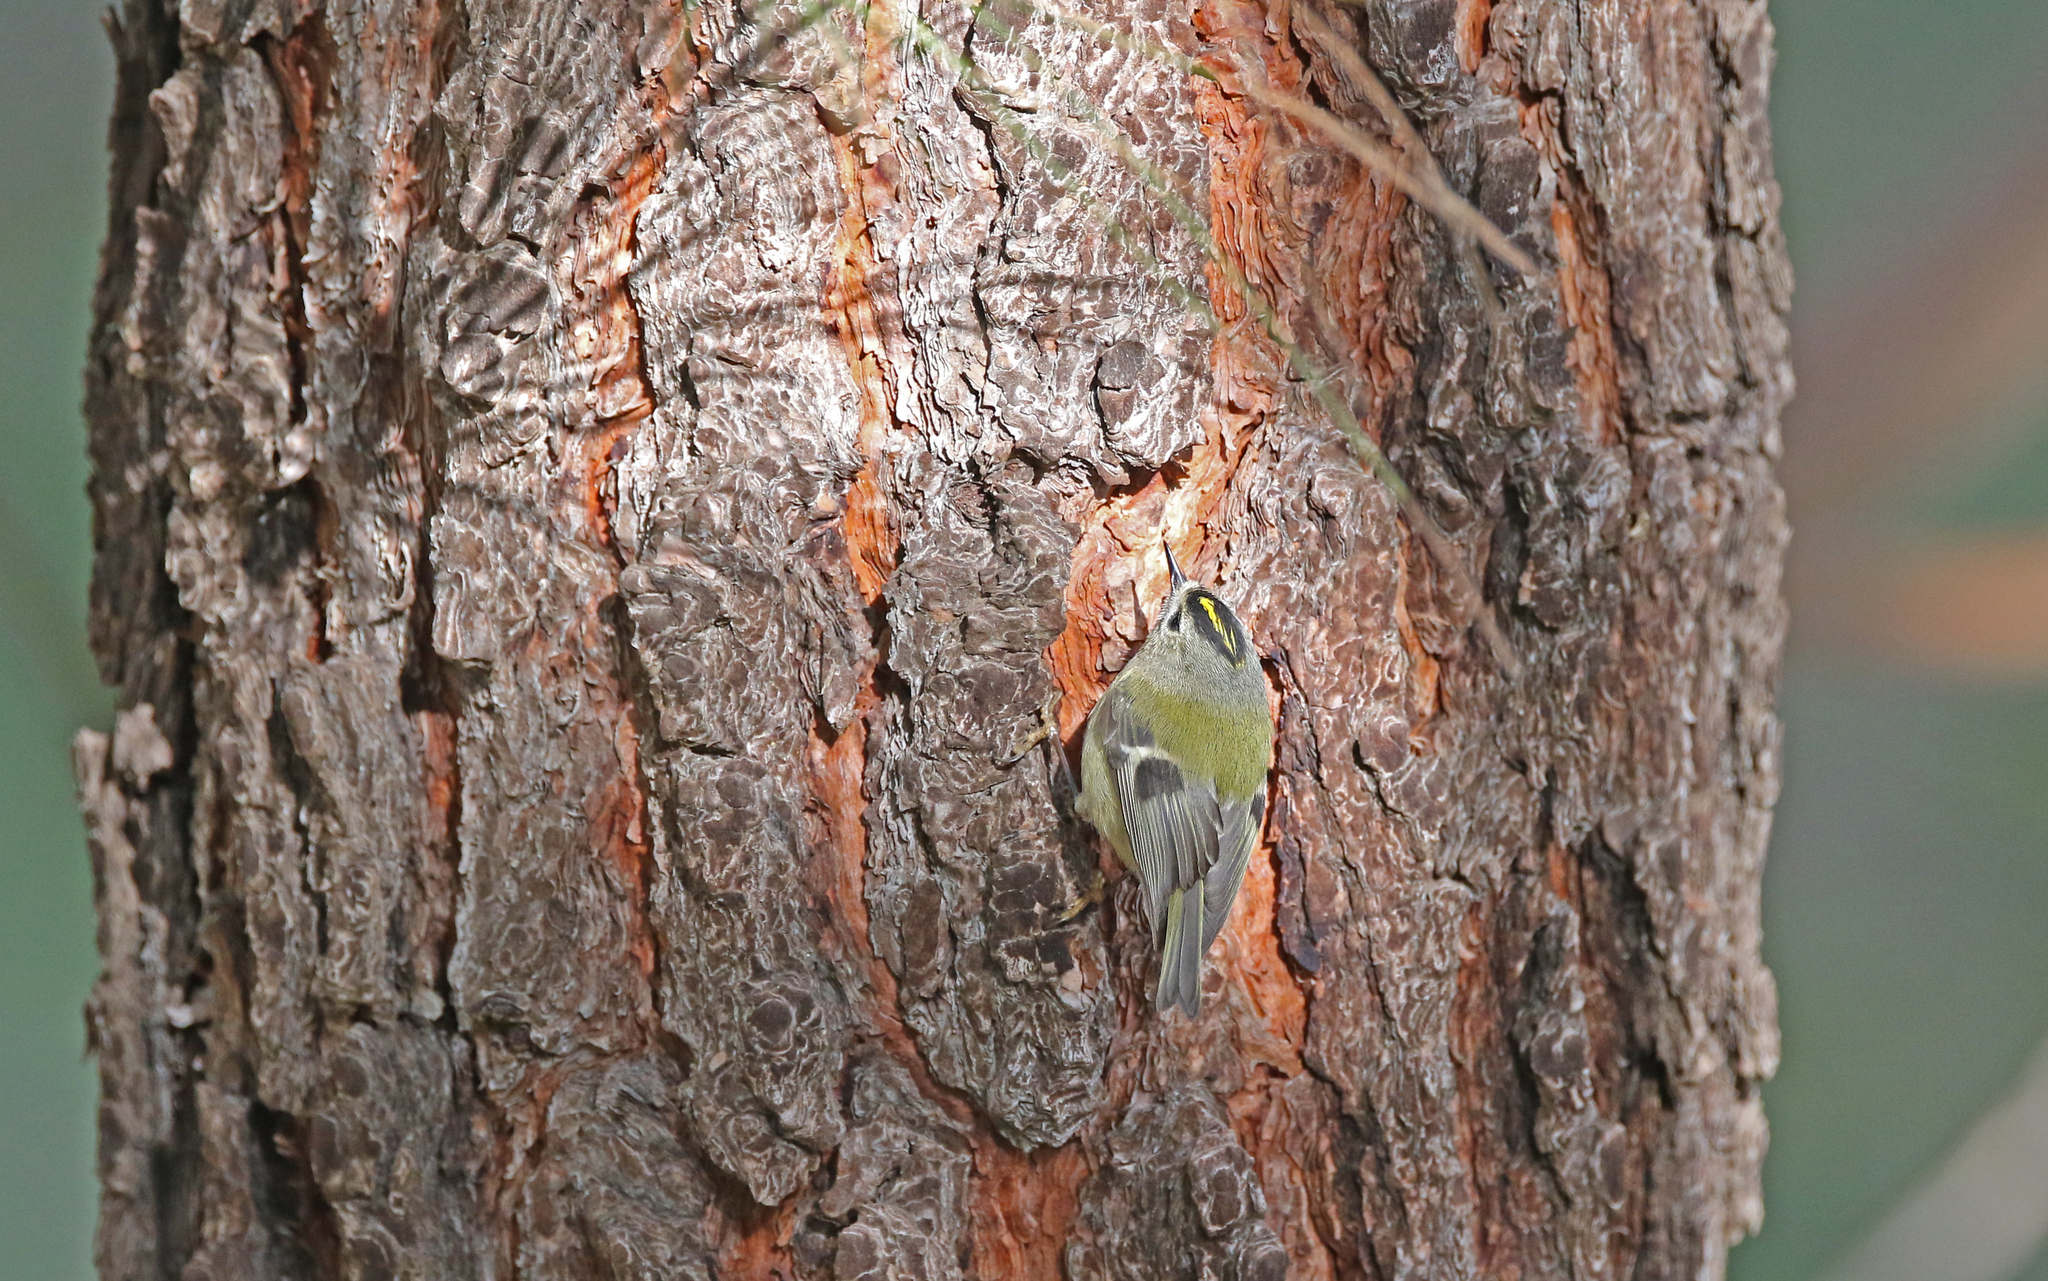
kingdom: Animalia
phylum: Chordata
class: Aves
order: Passeriformes
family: Regulidae
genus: Regulus
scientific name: Regulus regulus
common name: Goldcrest
